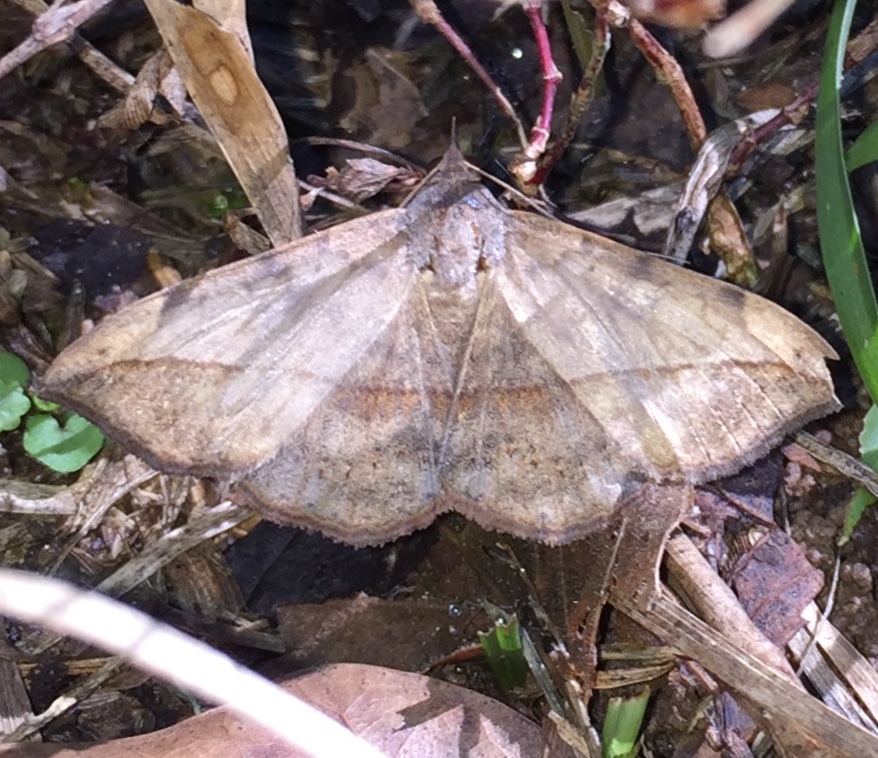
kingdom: Animalia
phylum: Arthropoda
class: Insecta
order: Lepidoptera
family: Erebidae
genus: Anticarsia
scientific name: Anticarsia gemmatalis
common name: Cutworm moth
